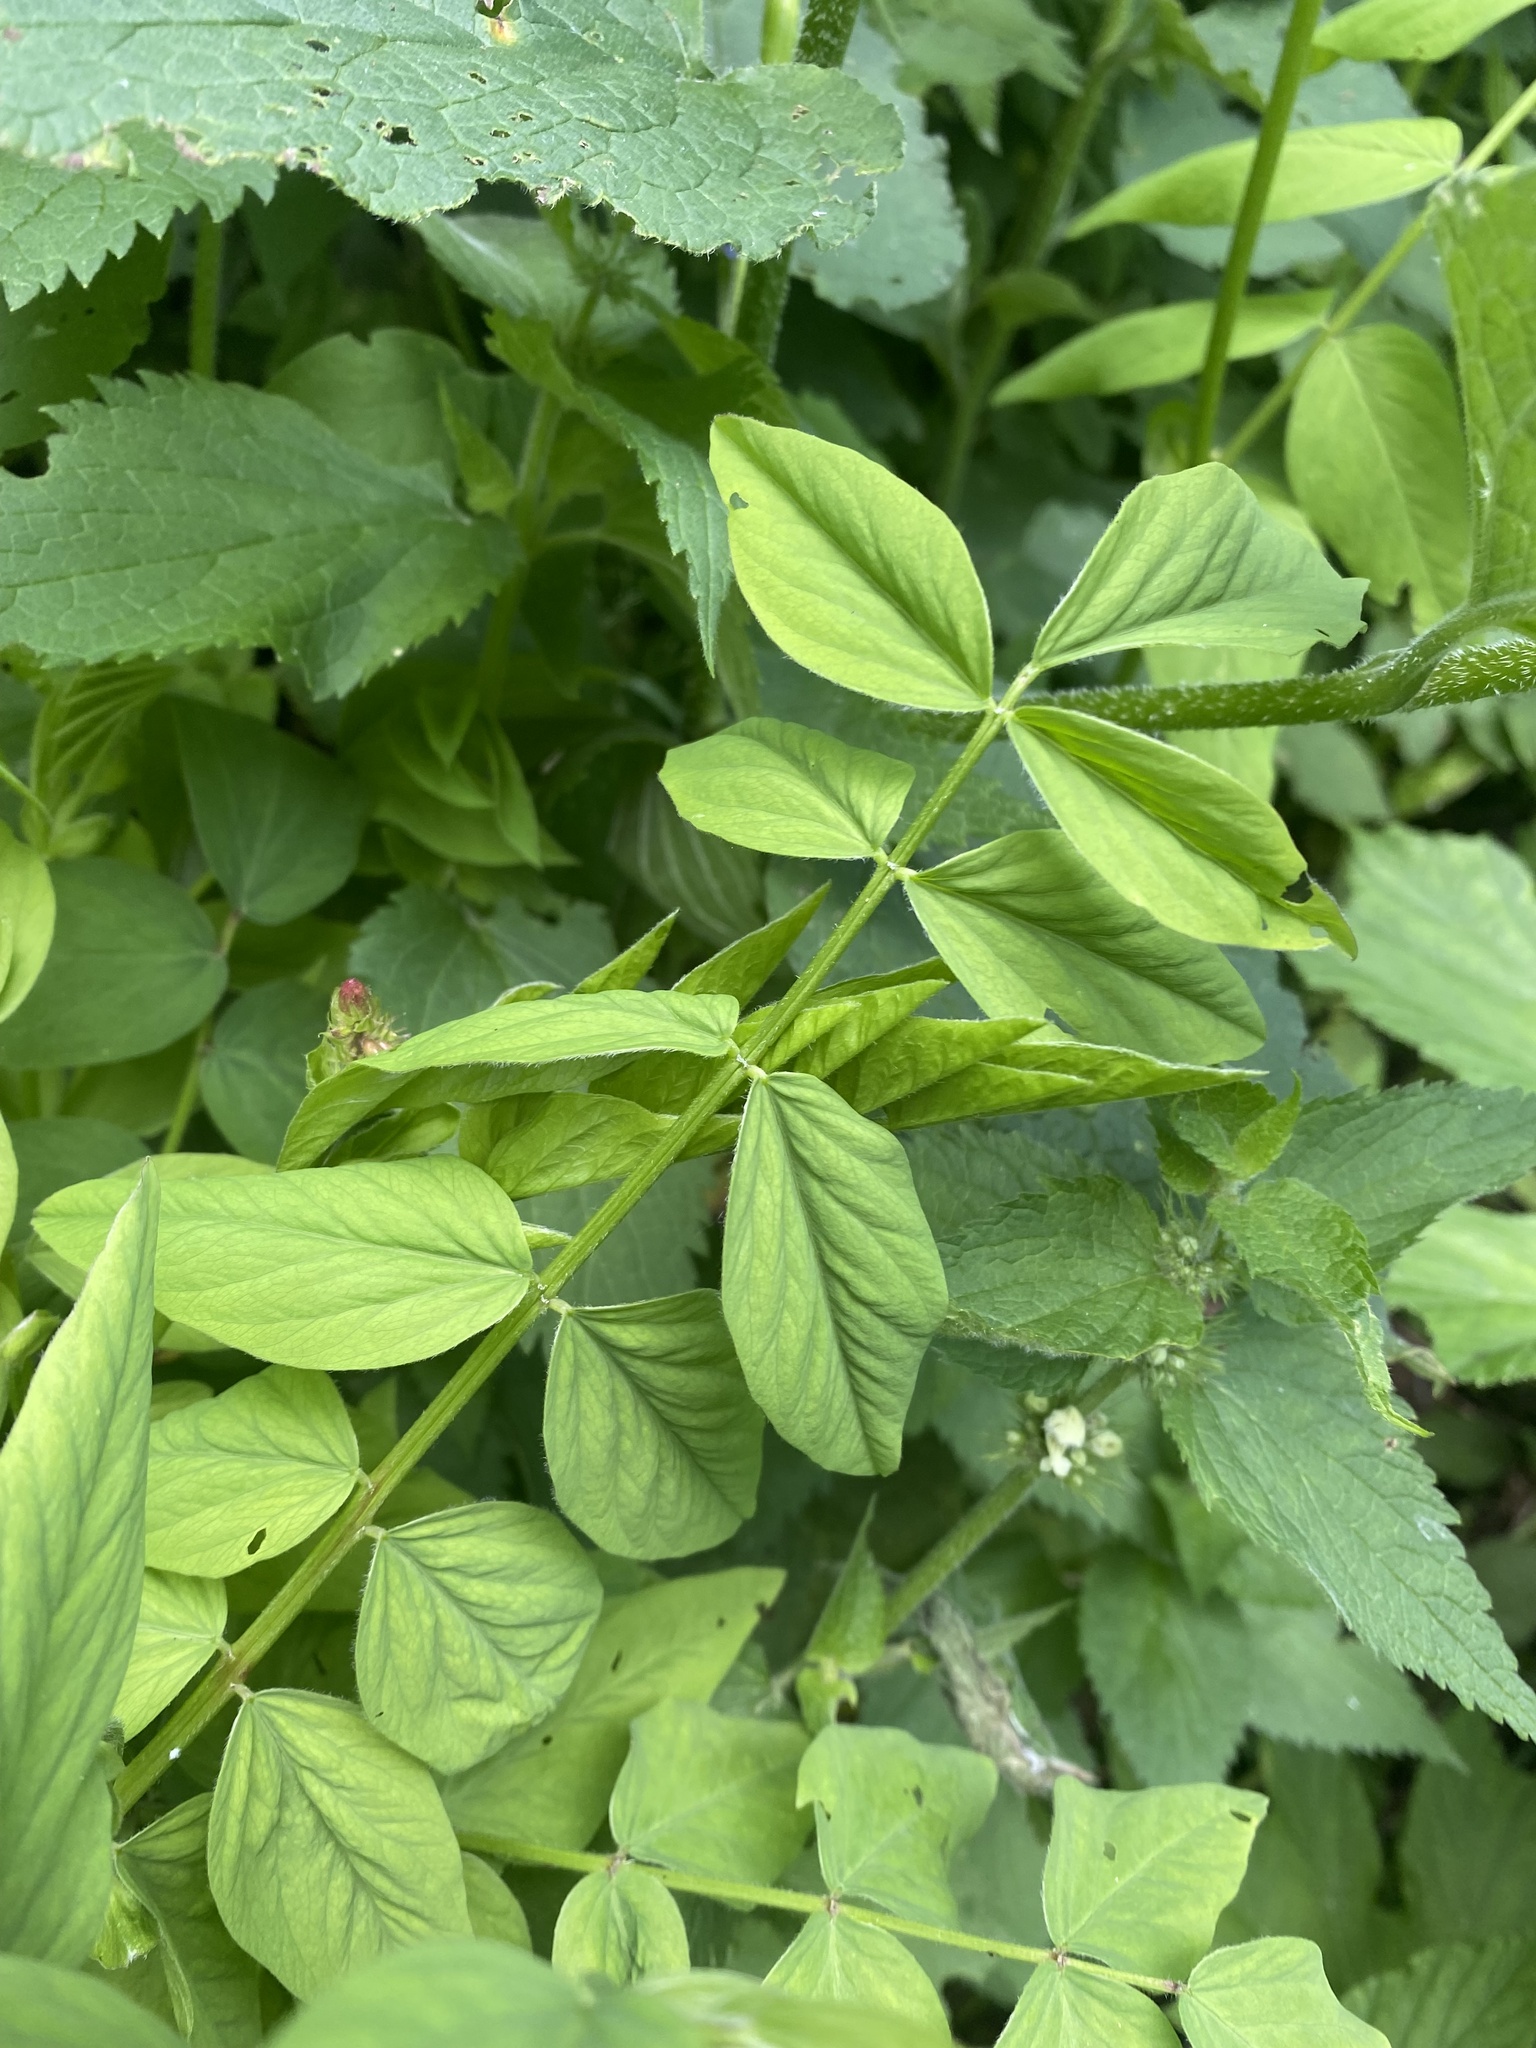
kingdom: Plantae
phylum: Tracheophyta
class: Magnoliopsida
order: Fabales
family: Fabaceae
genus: Galega
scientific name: Galega orientalis
